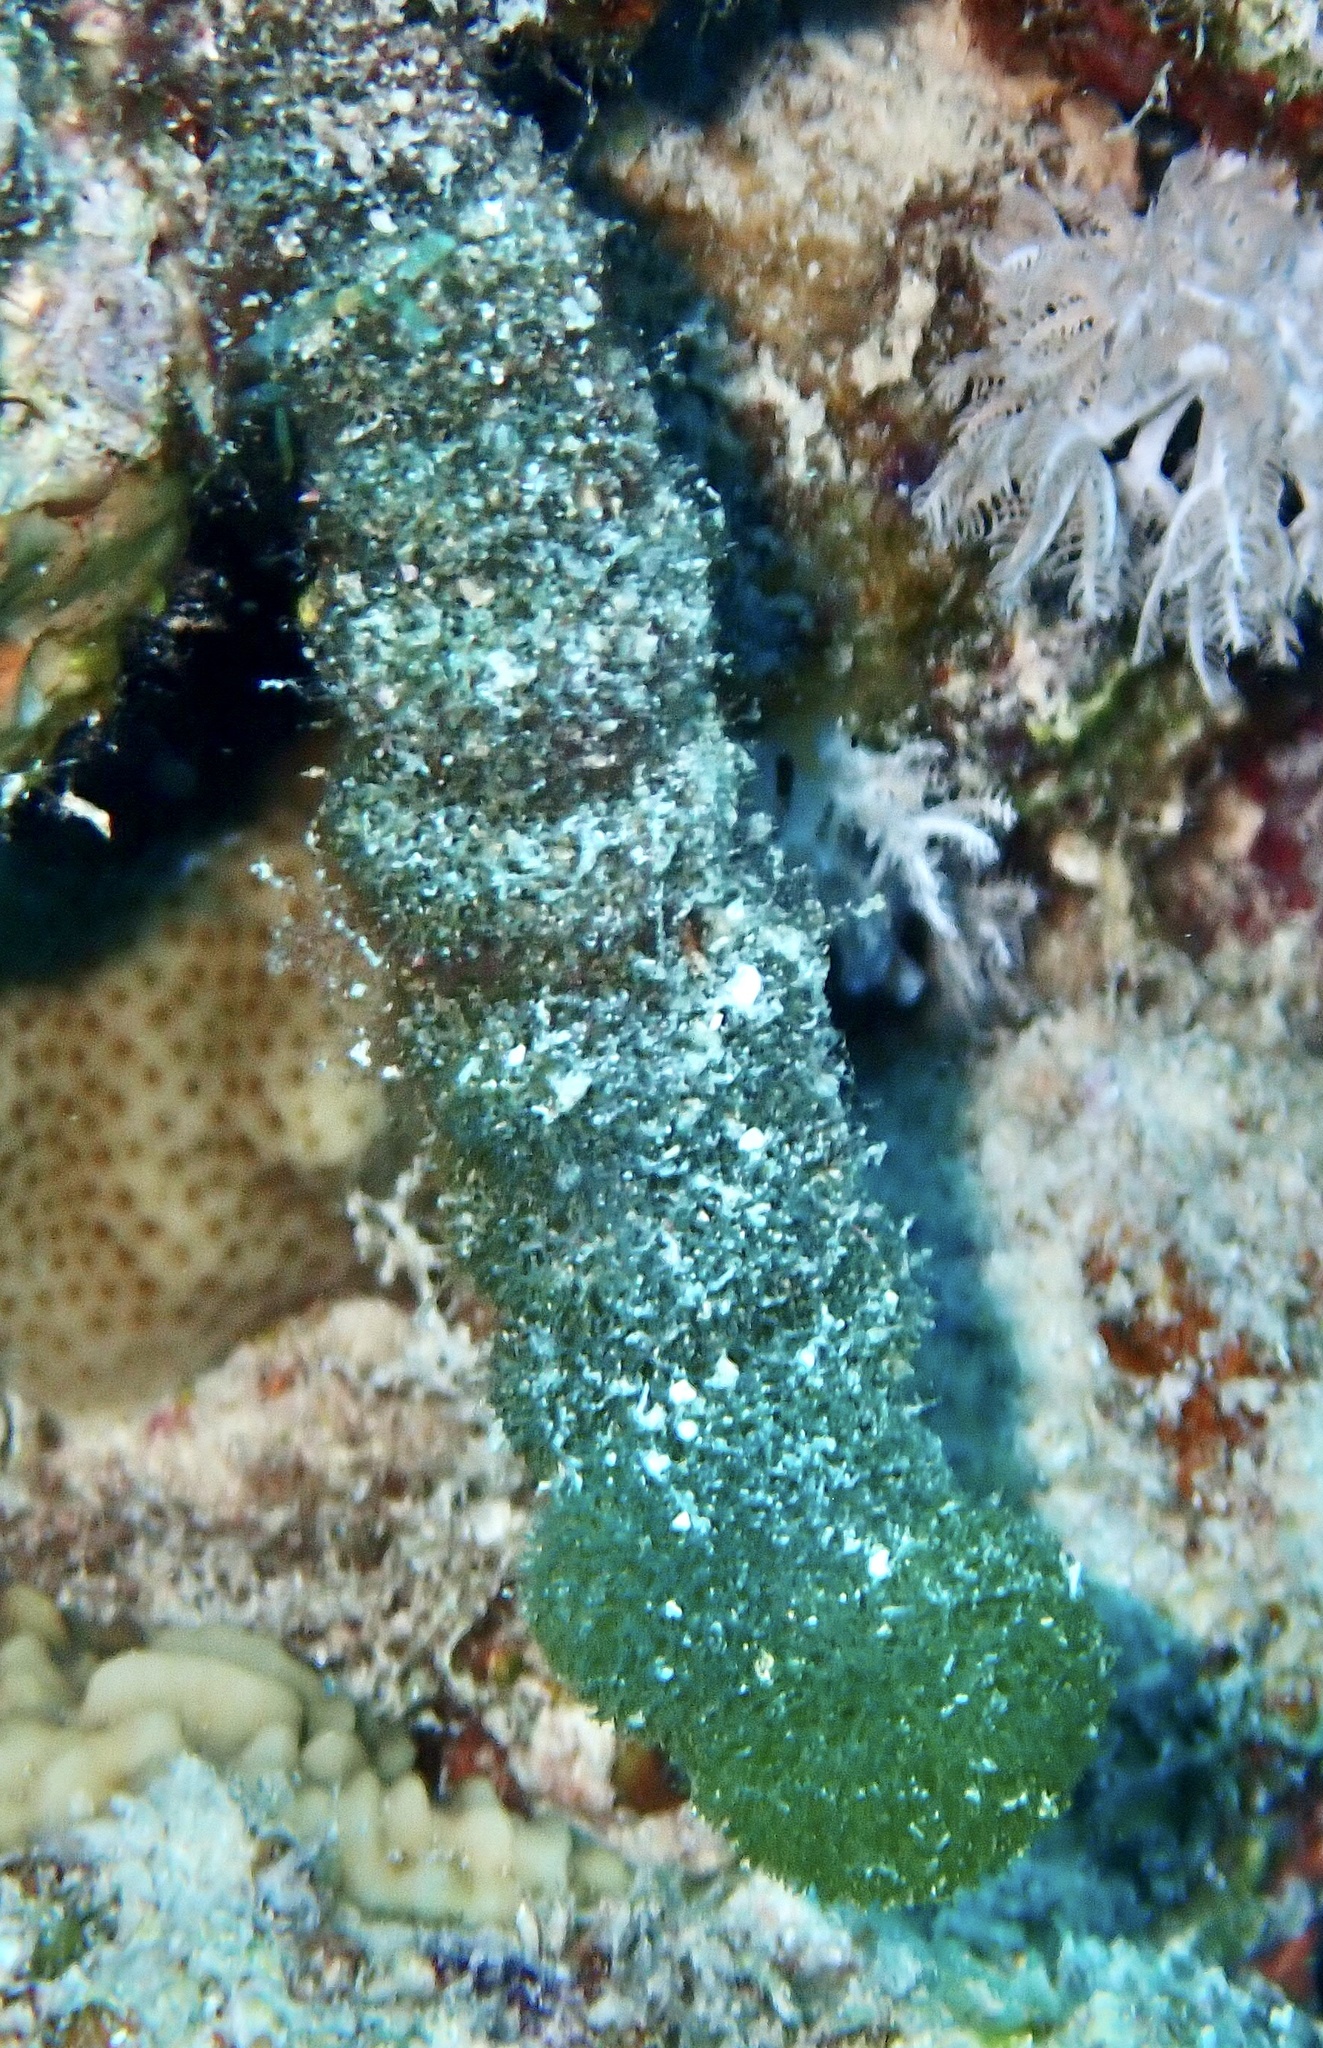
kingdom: Plantae
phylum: Chlorophyta
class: Ulvophyceae
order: Bryopsidales
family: Udoteaceae
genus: Tydemania
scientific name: Tydemania expeditionis
